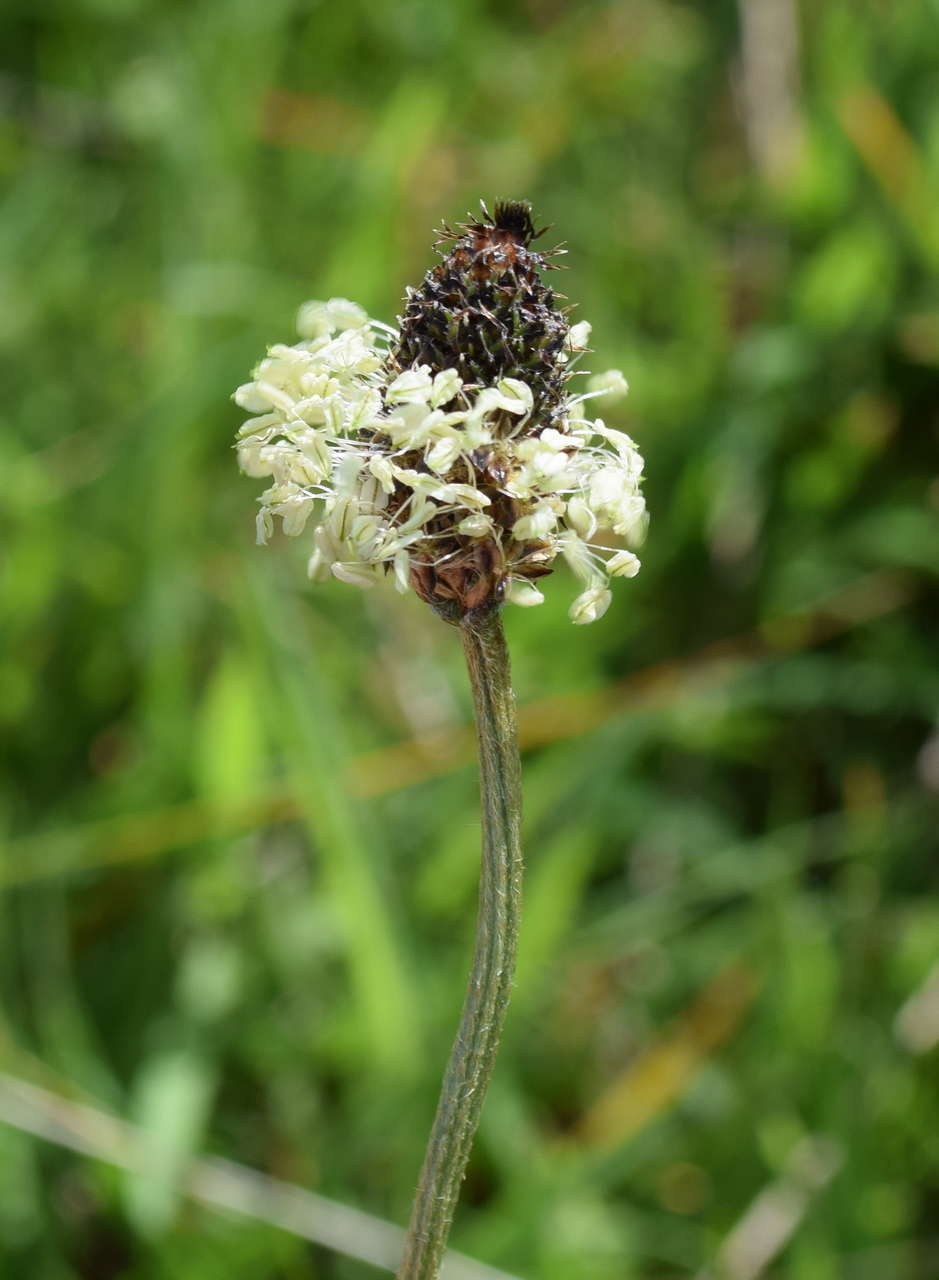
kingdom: Plantae
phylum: Tracheophyta
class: Magnoliopsida
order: Lamiales
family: Plantaginaceae
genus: Plantago
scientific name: Plantago lanceolata
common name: Ribwort plantain
